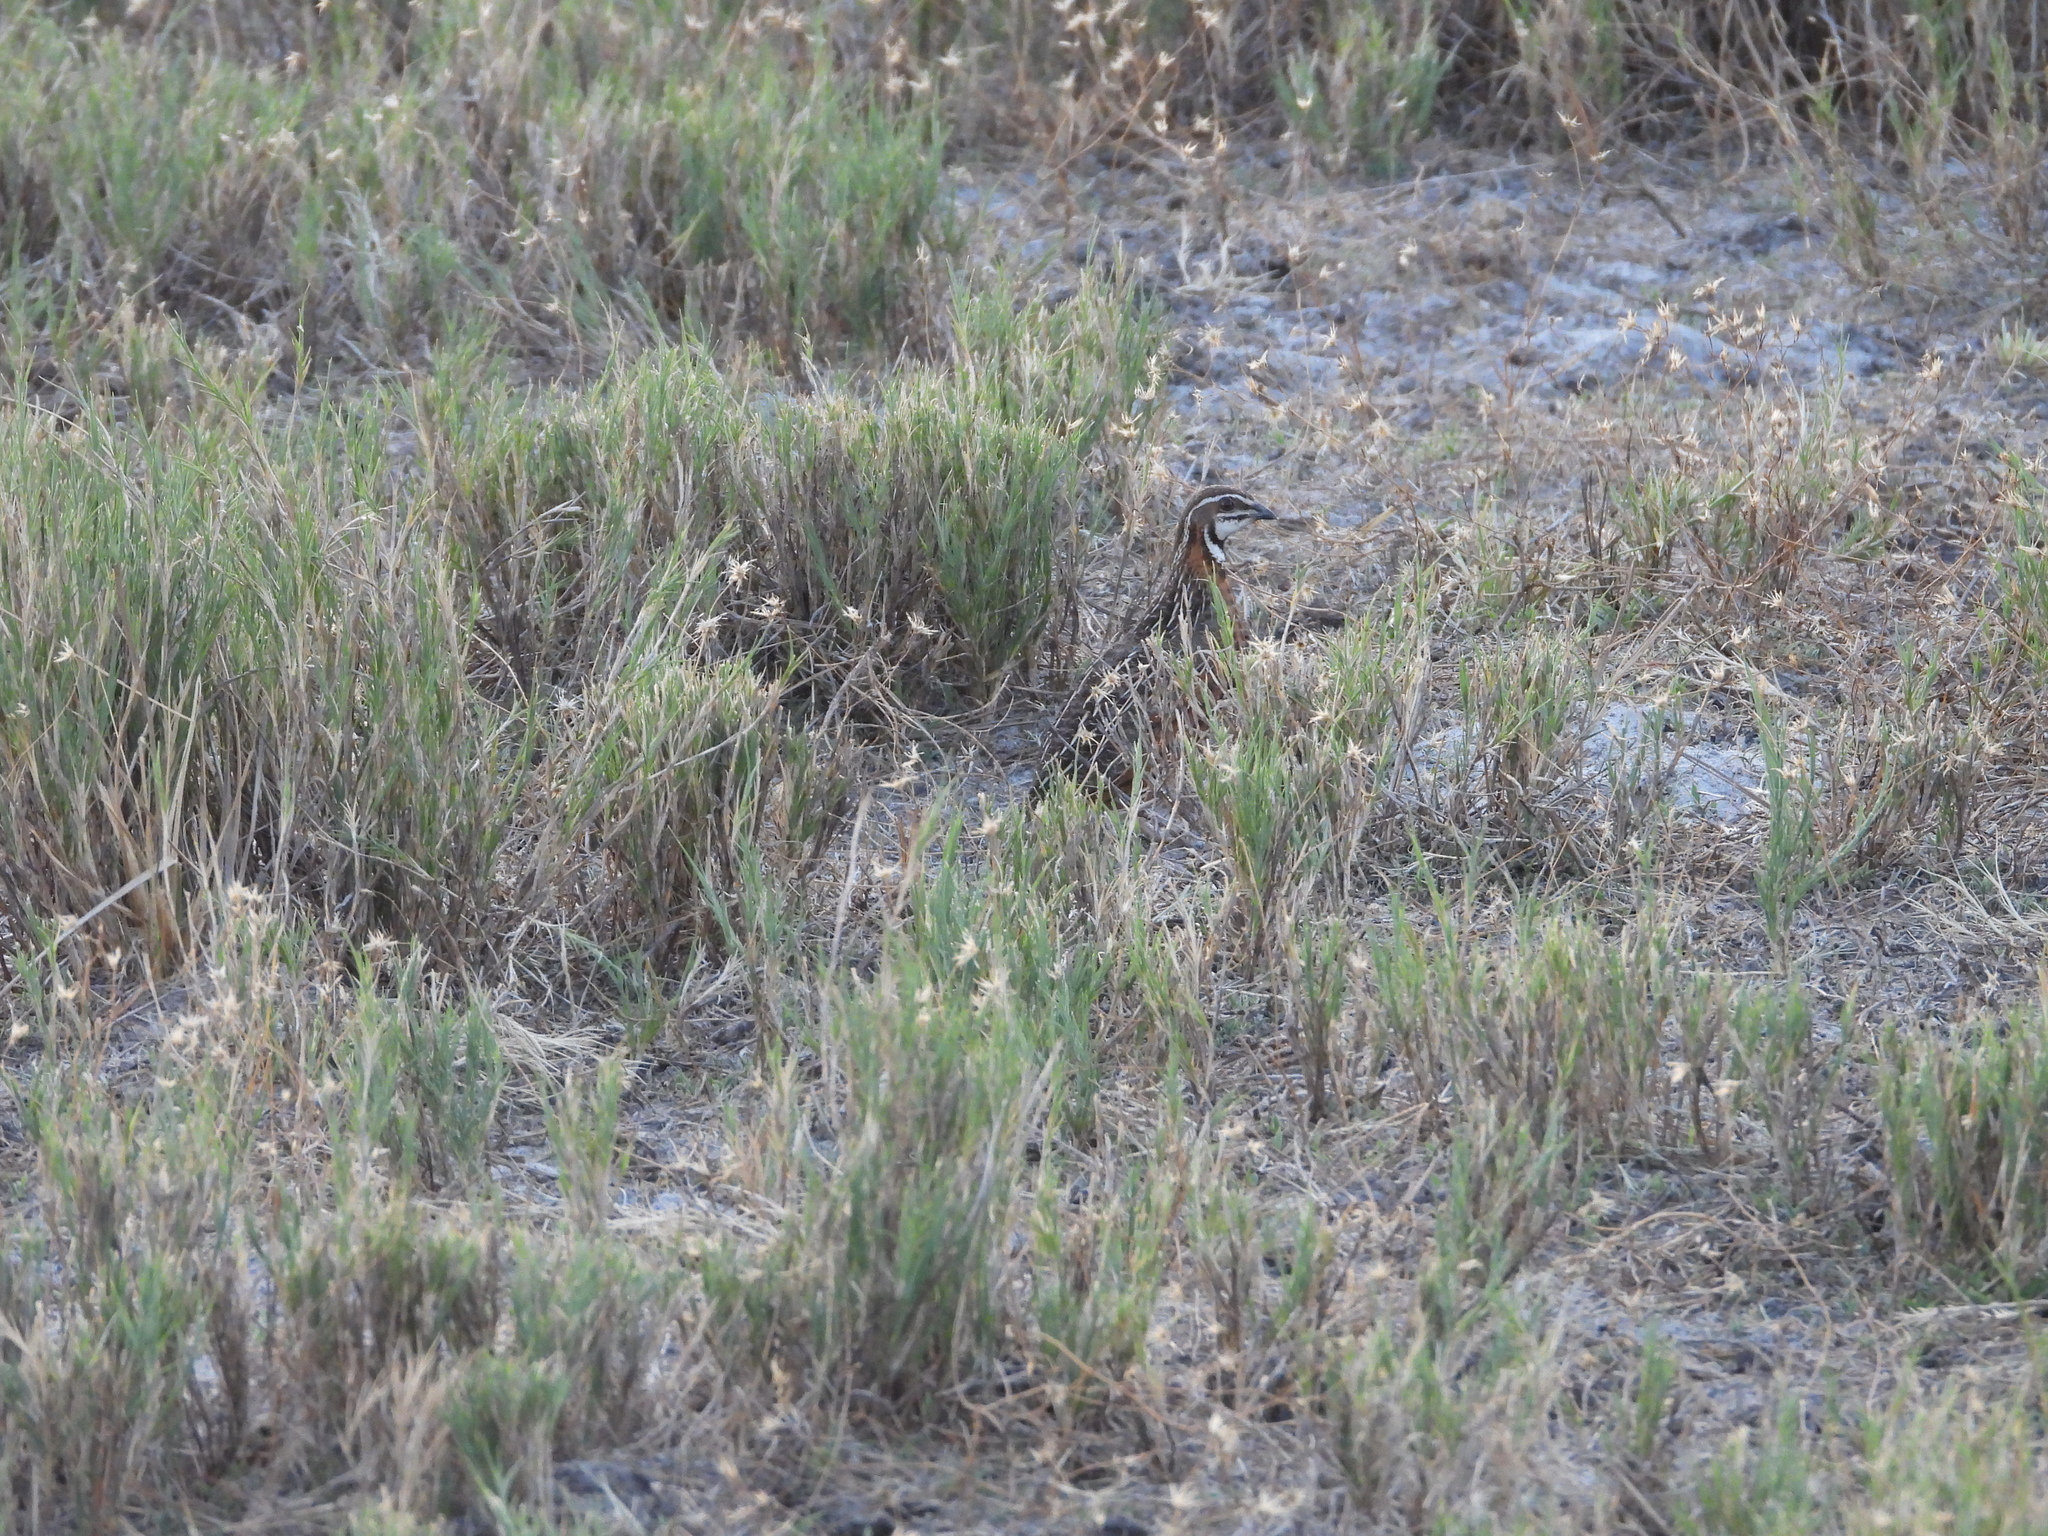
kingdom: Animalia
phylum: Chordata
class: Aves
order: Galliformes
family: Phasianidae
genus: Coturnix
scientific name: Coturnix delegorguei
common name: Harlequin quail
